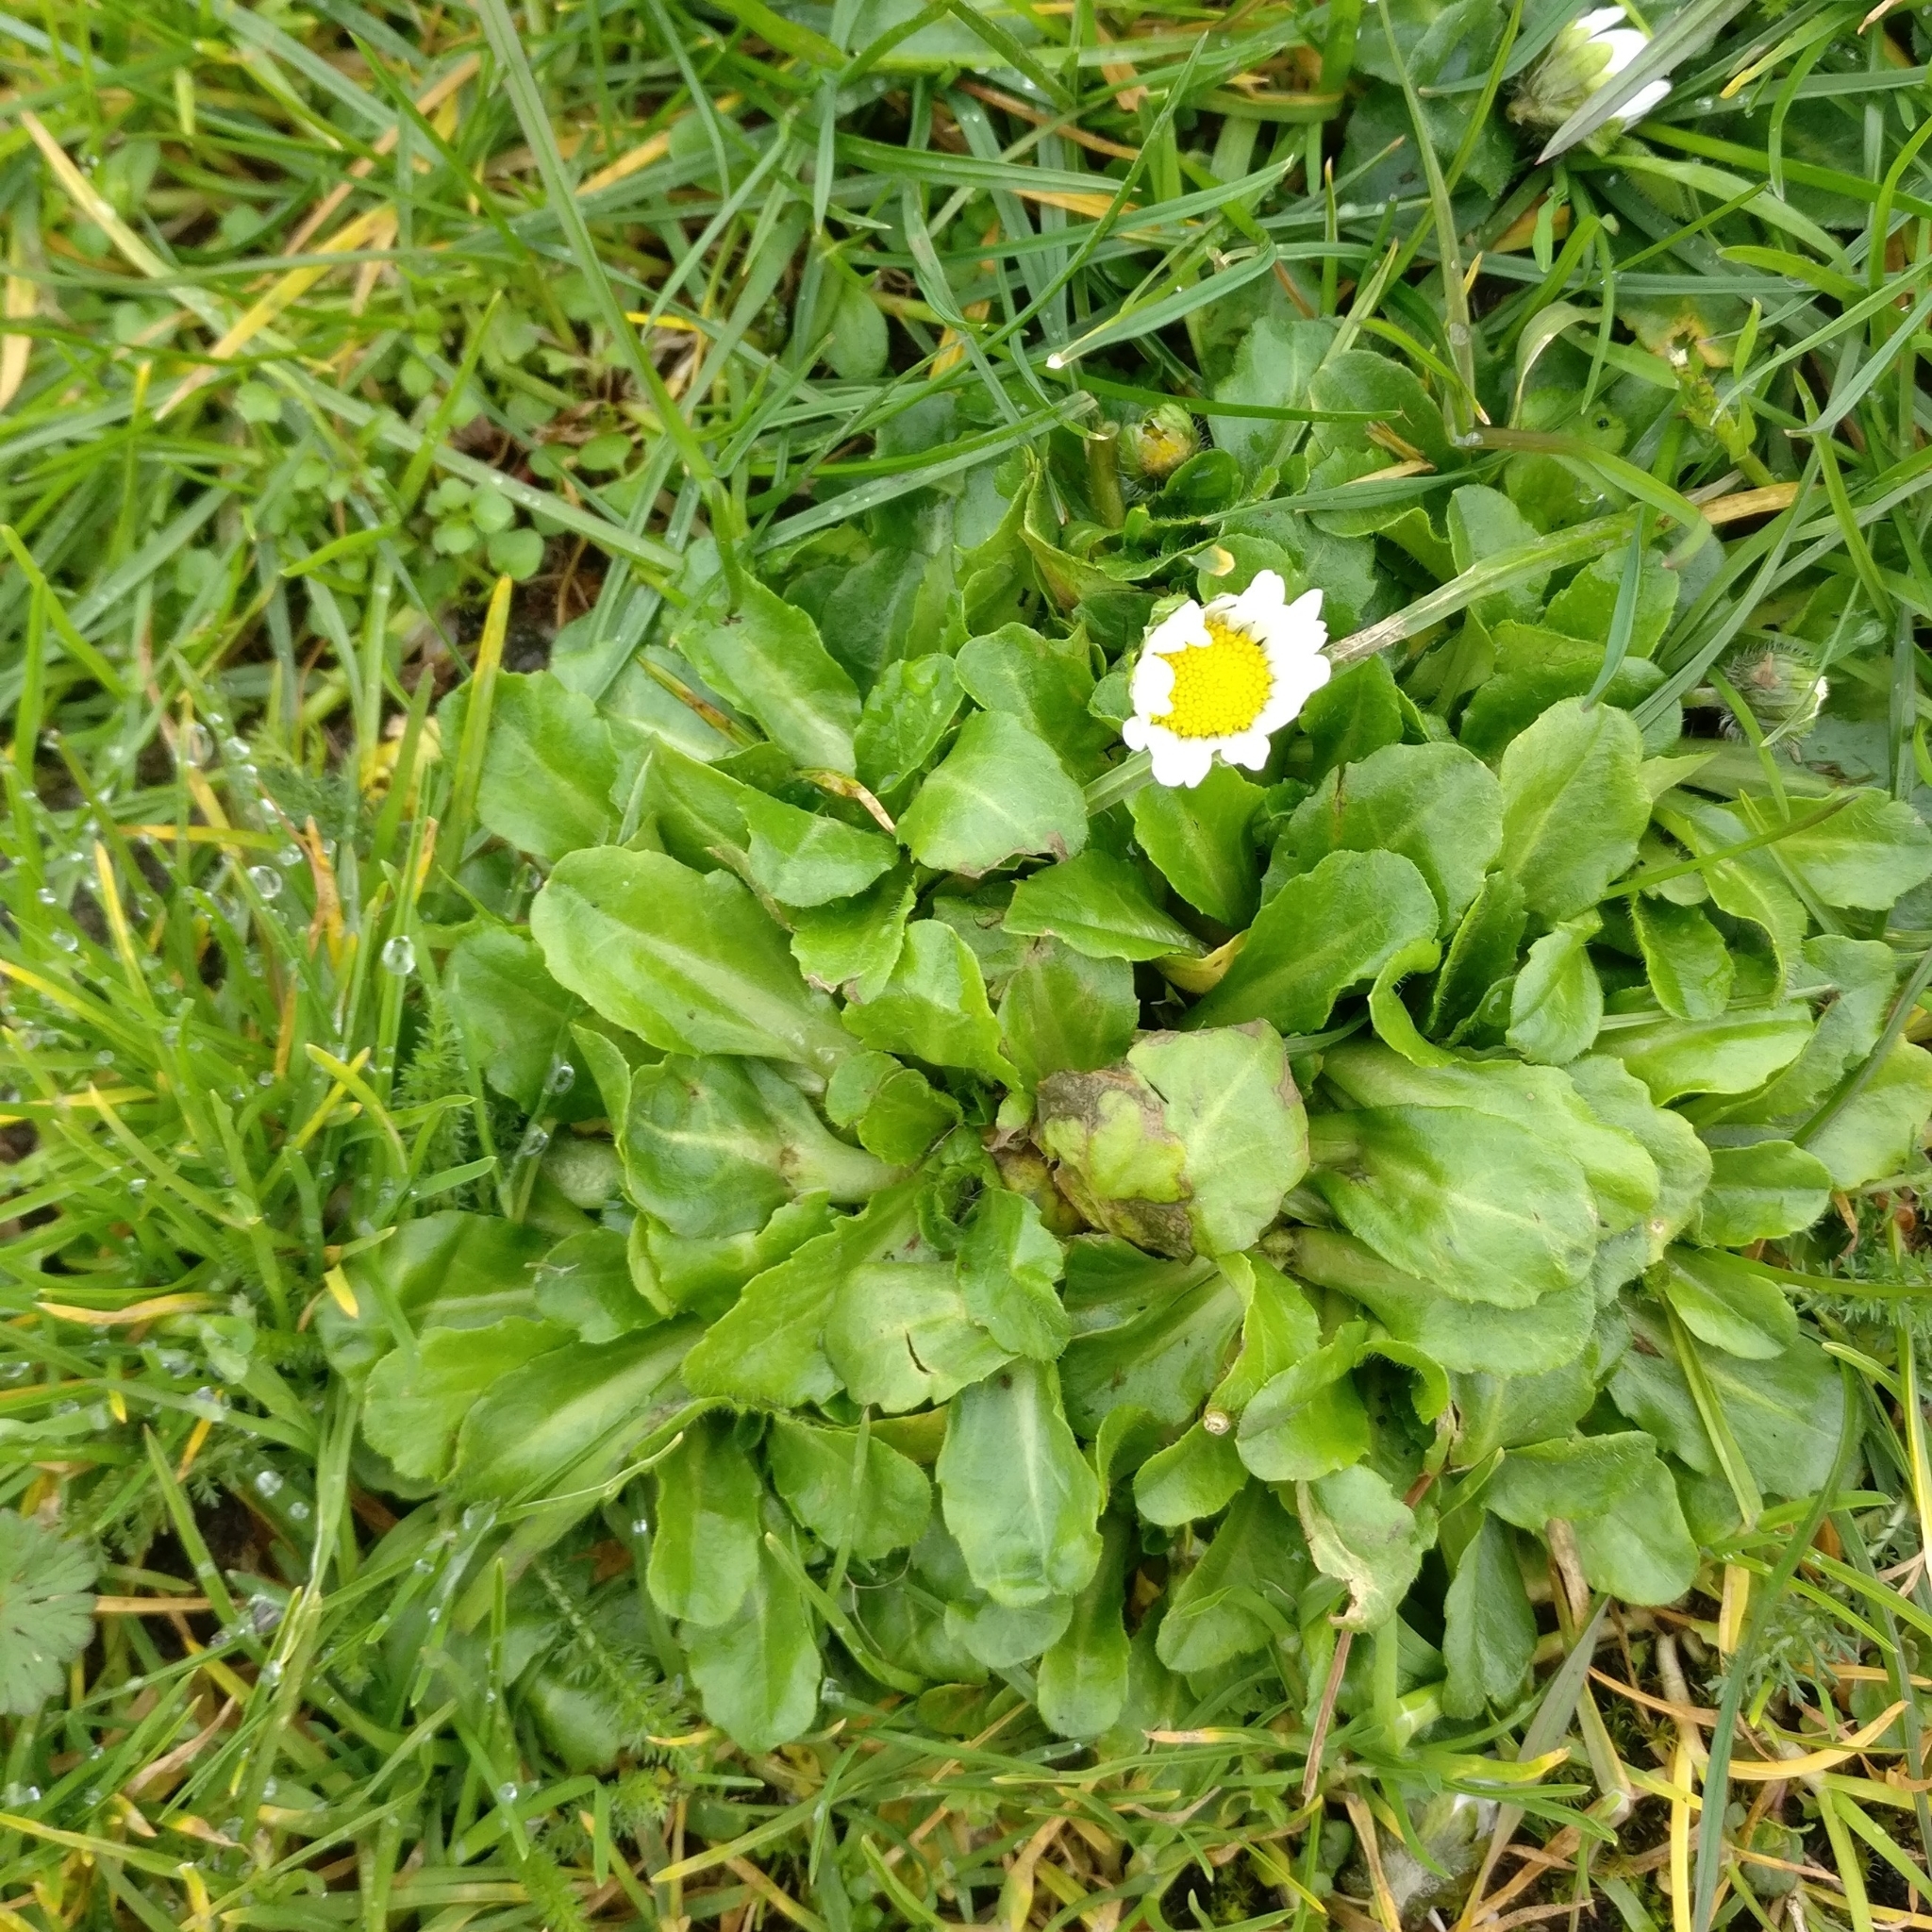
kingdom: Plantae
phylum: Tracheophyta
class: Magnoliopsida
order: Asterales
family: Asteraceae
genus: Bellis
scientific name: Bellis perennis
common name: Lawndaisy
